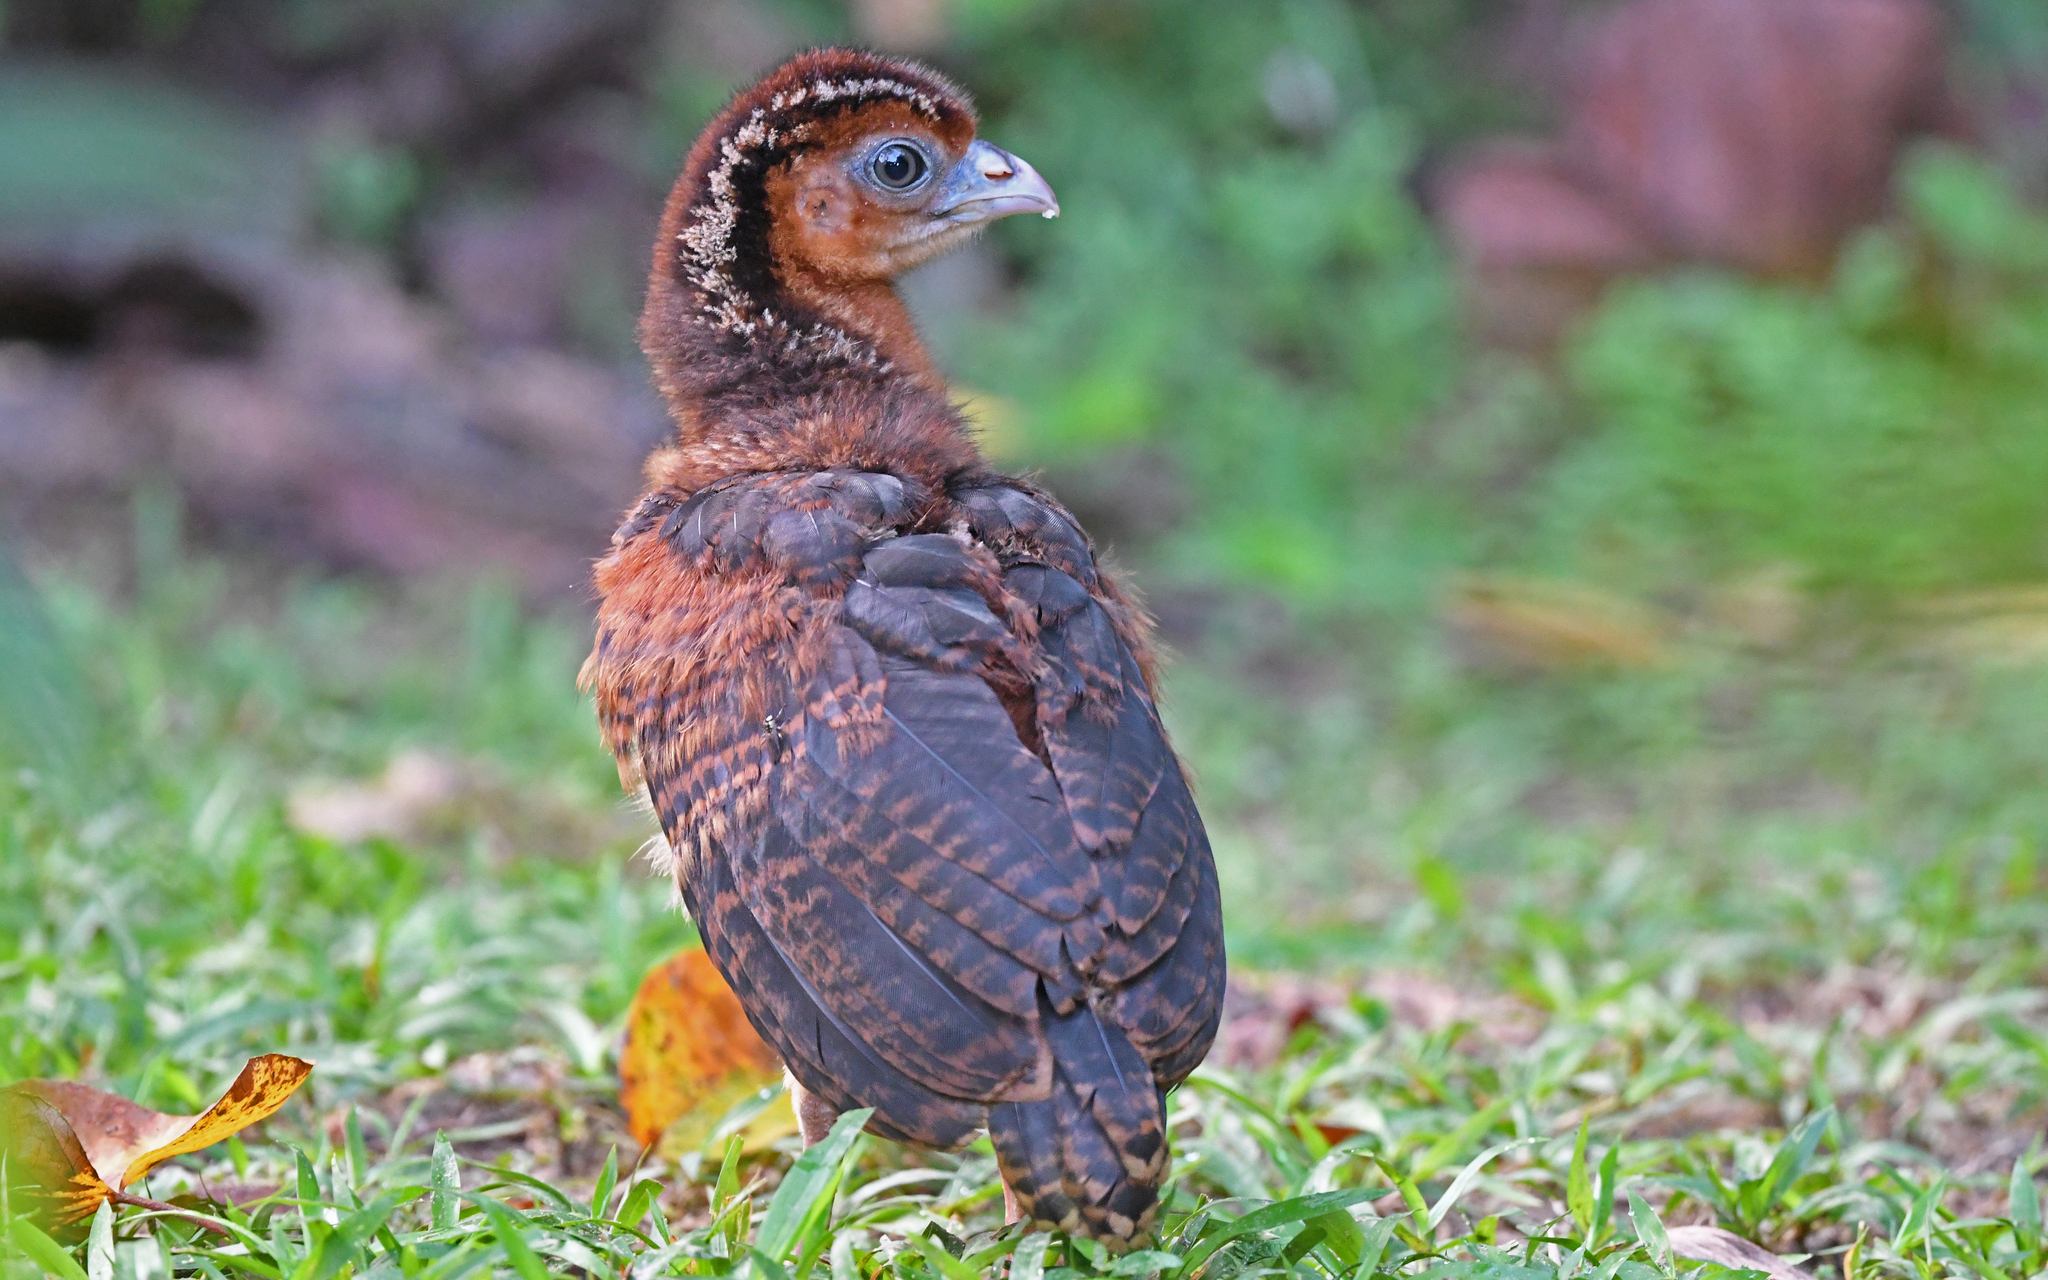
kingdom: Animalia
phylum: Chordata
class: Aves
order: Galliformes
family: Cracidae
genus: Crax
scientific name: Crax alberti
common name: Blue-billed curassow
